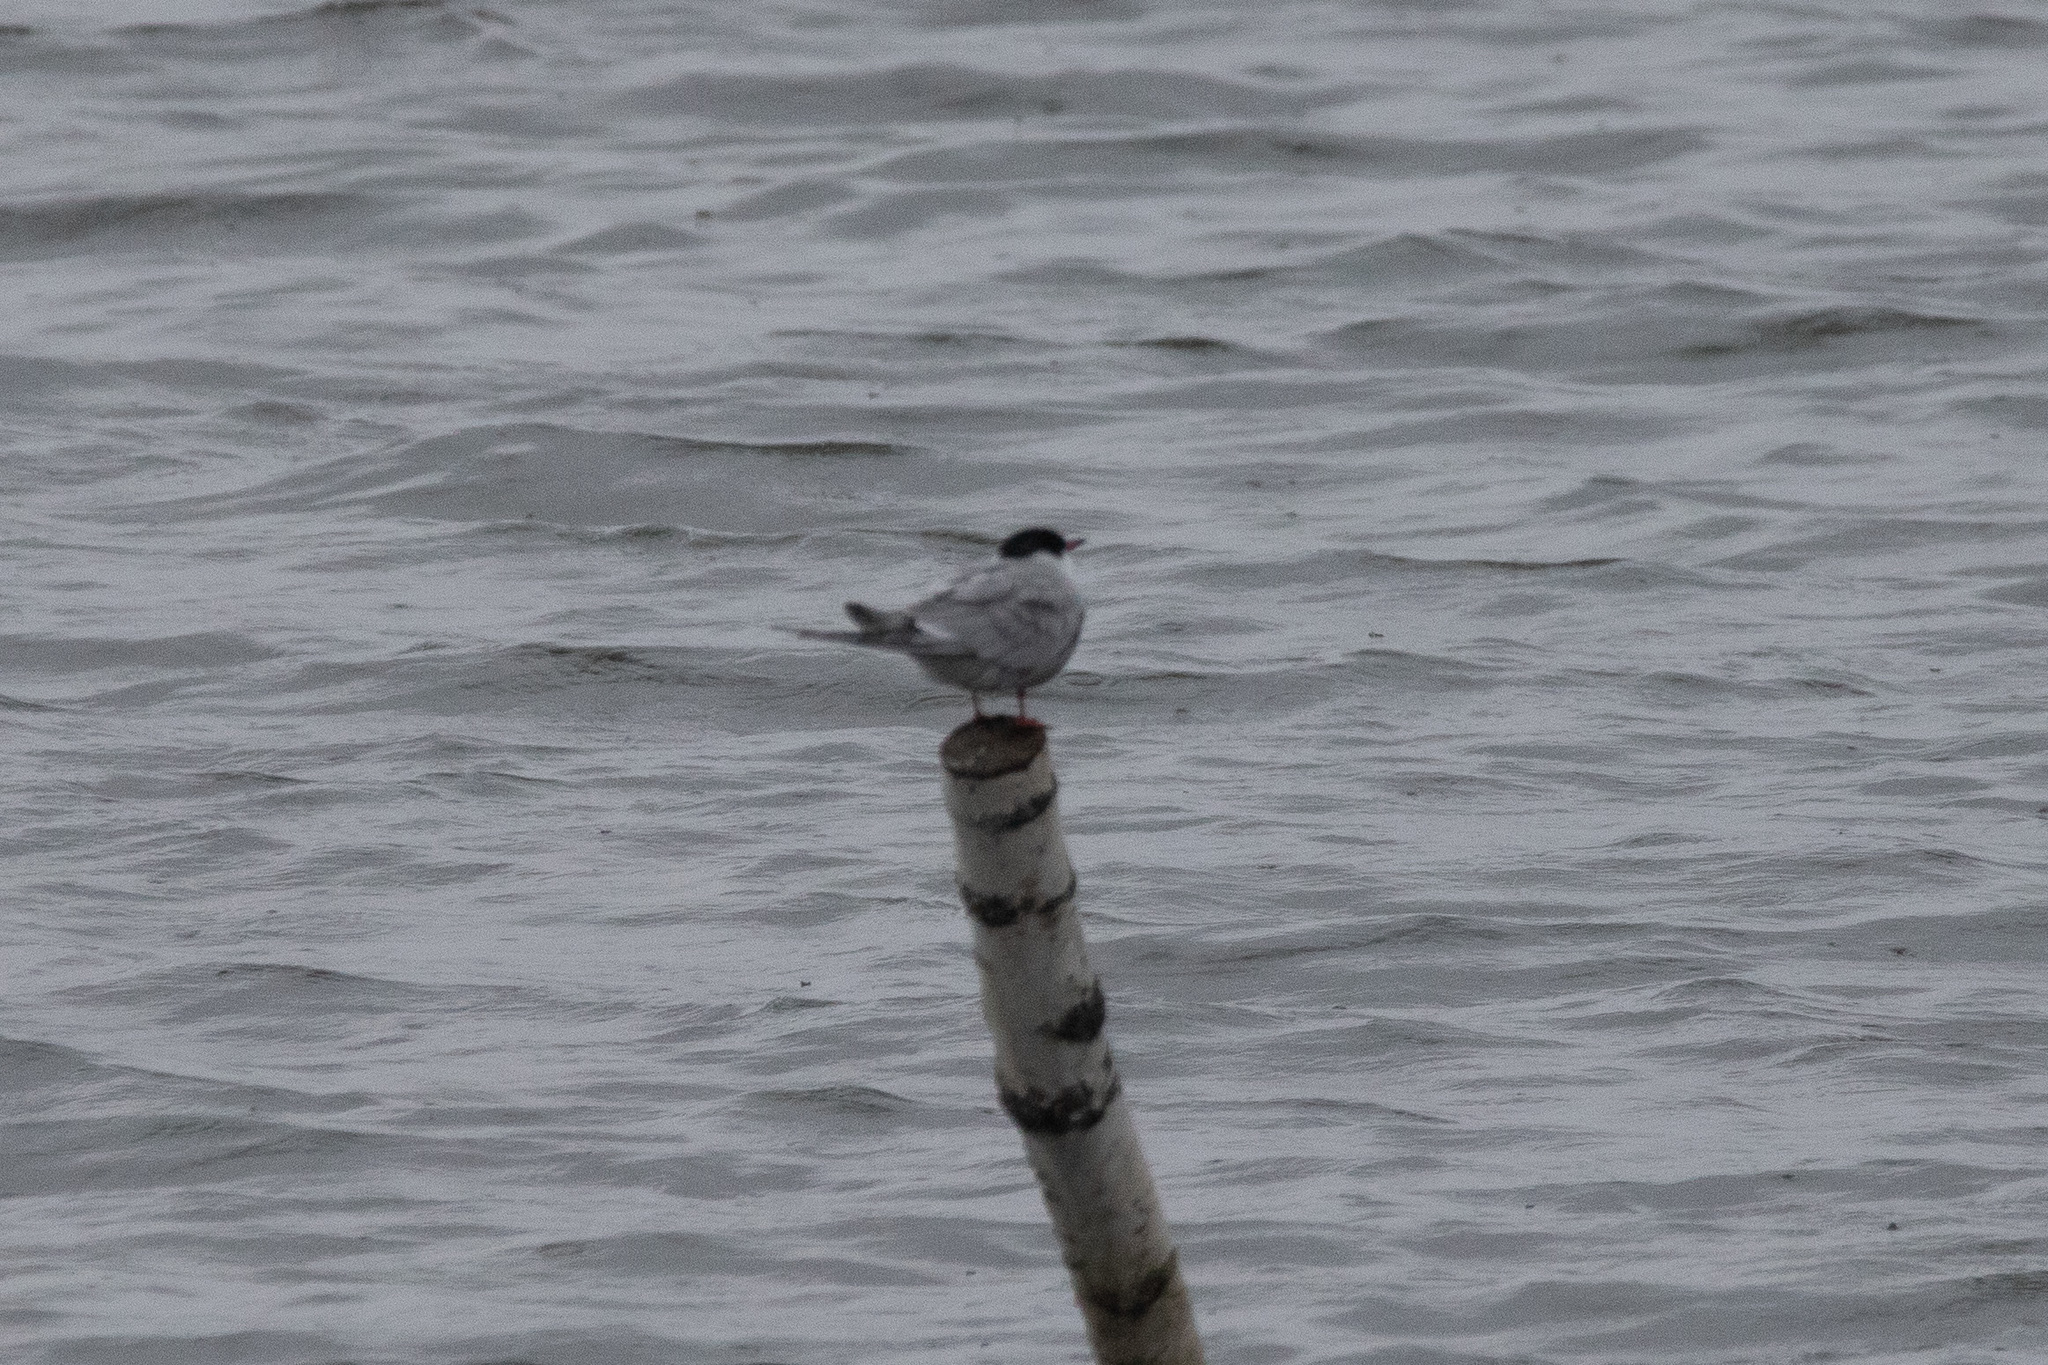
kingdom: Animalia
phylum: Chordata
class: Aves
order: Charadriiformes
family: Laridae
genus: Sterna
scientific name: Sterna hirundo
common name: Common tern
